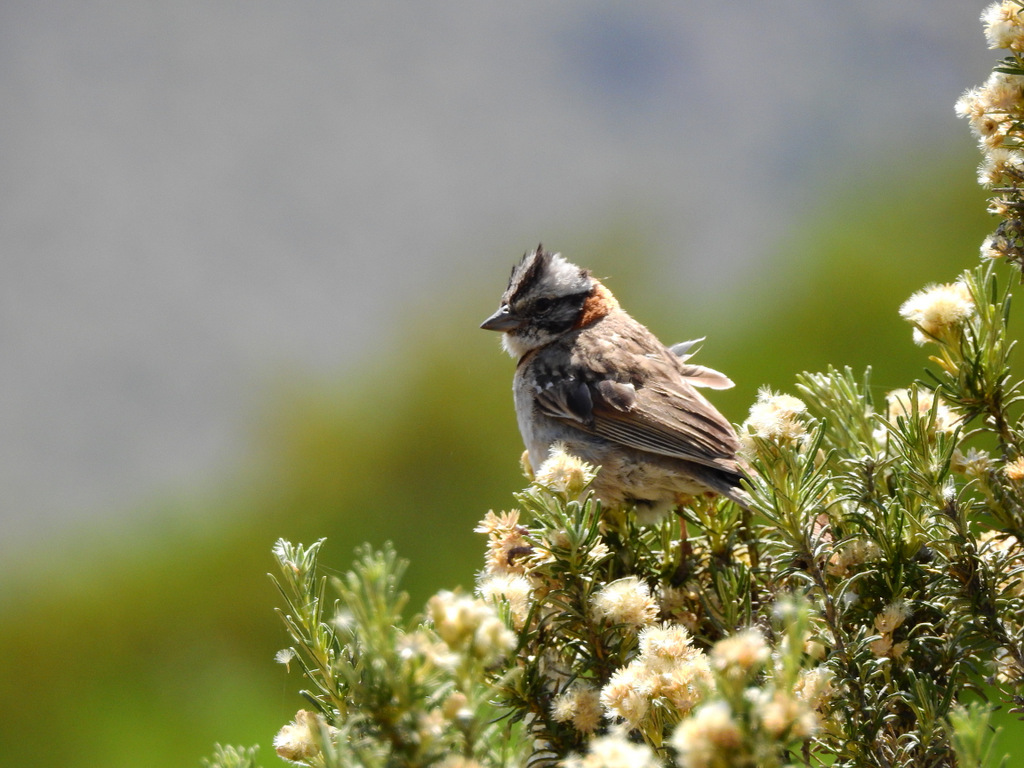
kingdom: Animalia
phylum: Chordata
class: Aves
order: Passeriformes
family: Passerellidae
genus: Zonotrichia
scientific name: Zonotrichia capensis
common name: Rufous-collared sparrow
